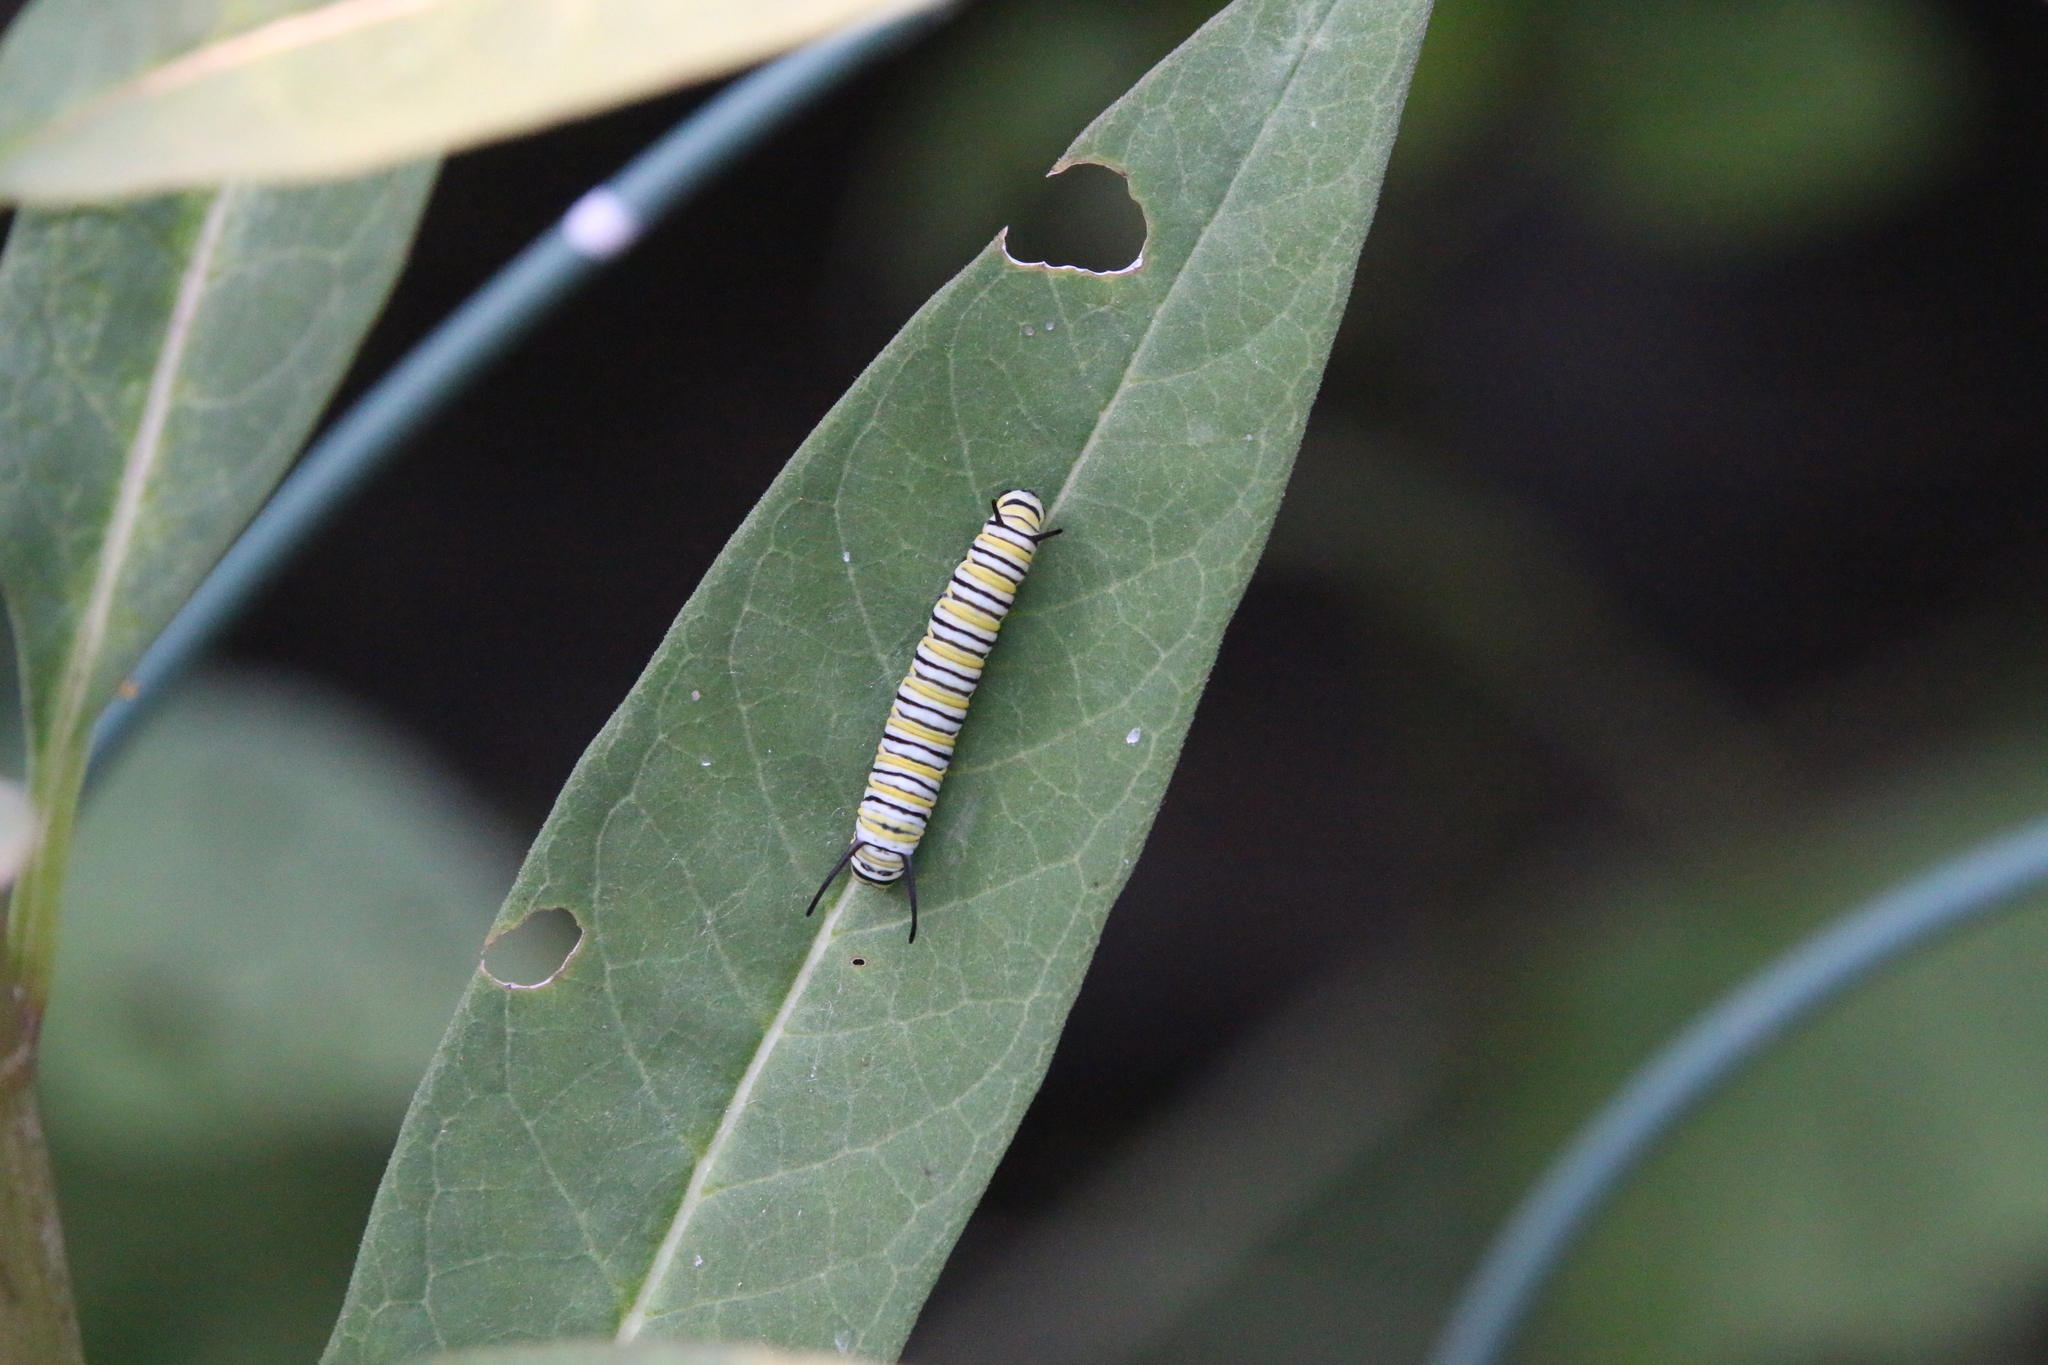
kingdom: Animalia
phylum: Arthropoda
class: Insecta
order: Lepidoptera
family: Nymphalidae
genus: Danaus
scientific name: Danaus plexippus
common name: Monarch
